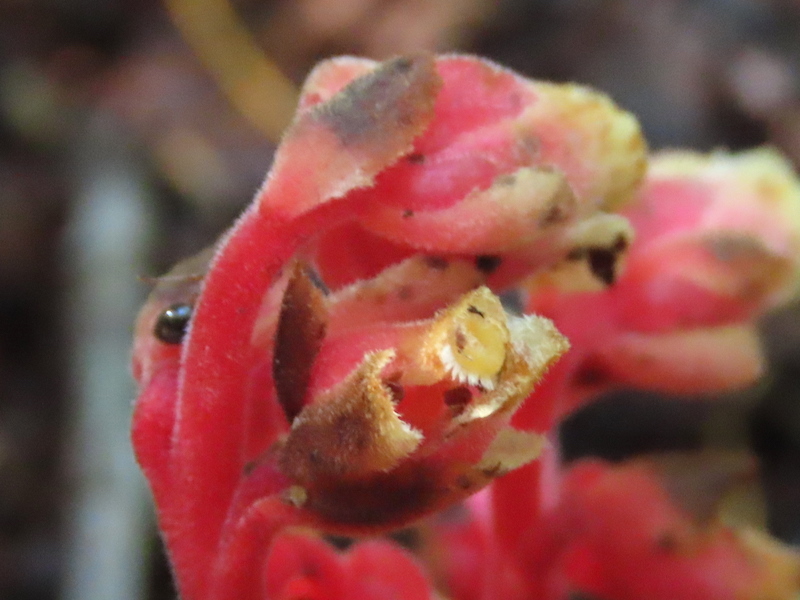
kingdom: Plantae
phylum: Tracheophyta
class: Magnoliopsida
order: Ericales
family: Ericaceae
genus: Hypopitys
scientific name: Hypopitys monotropa
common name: Yellow bird's-nest
